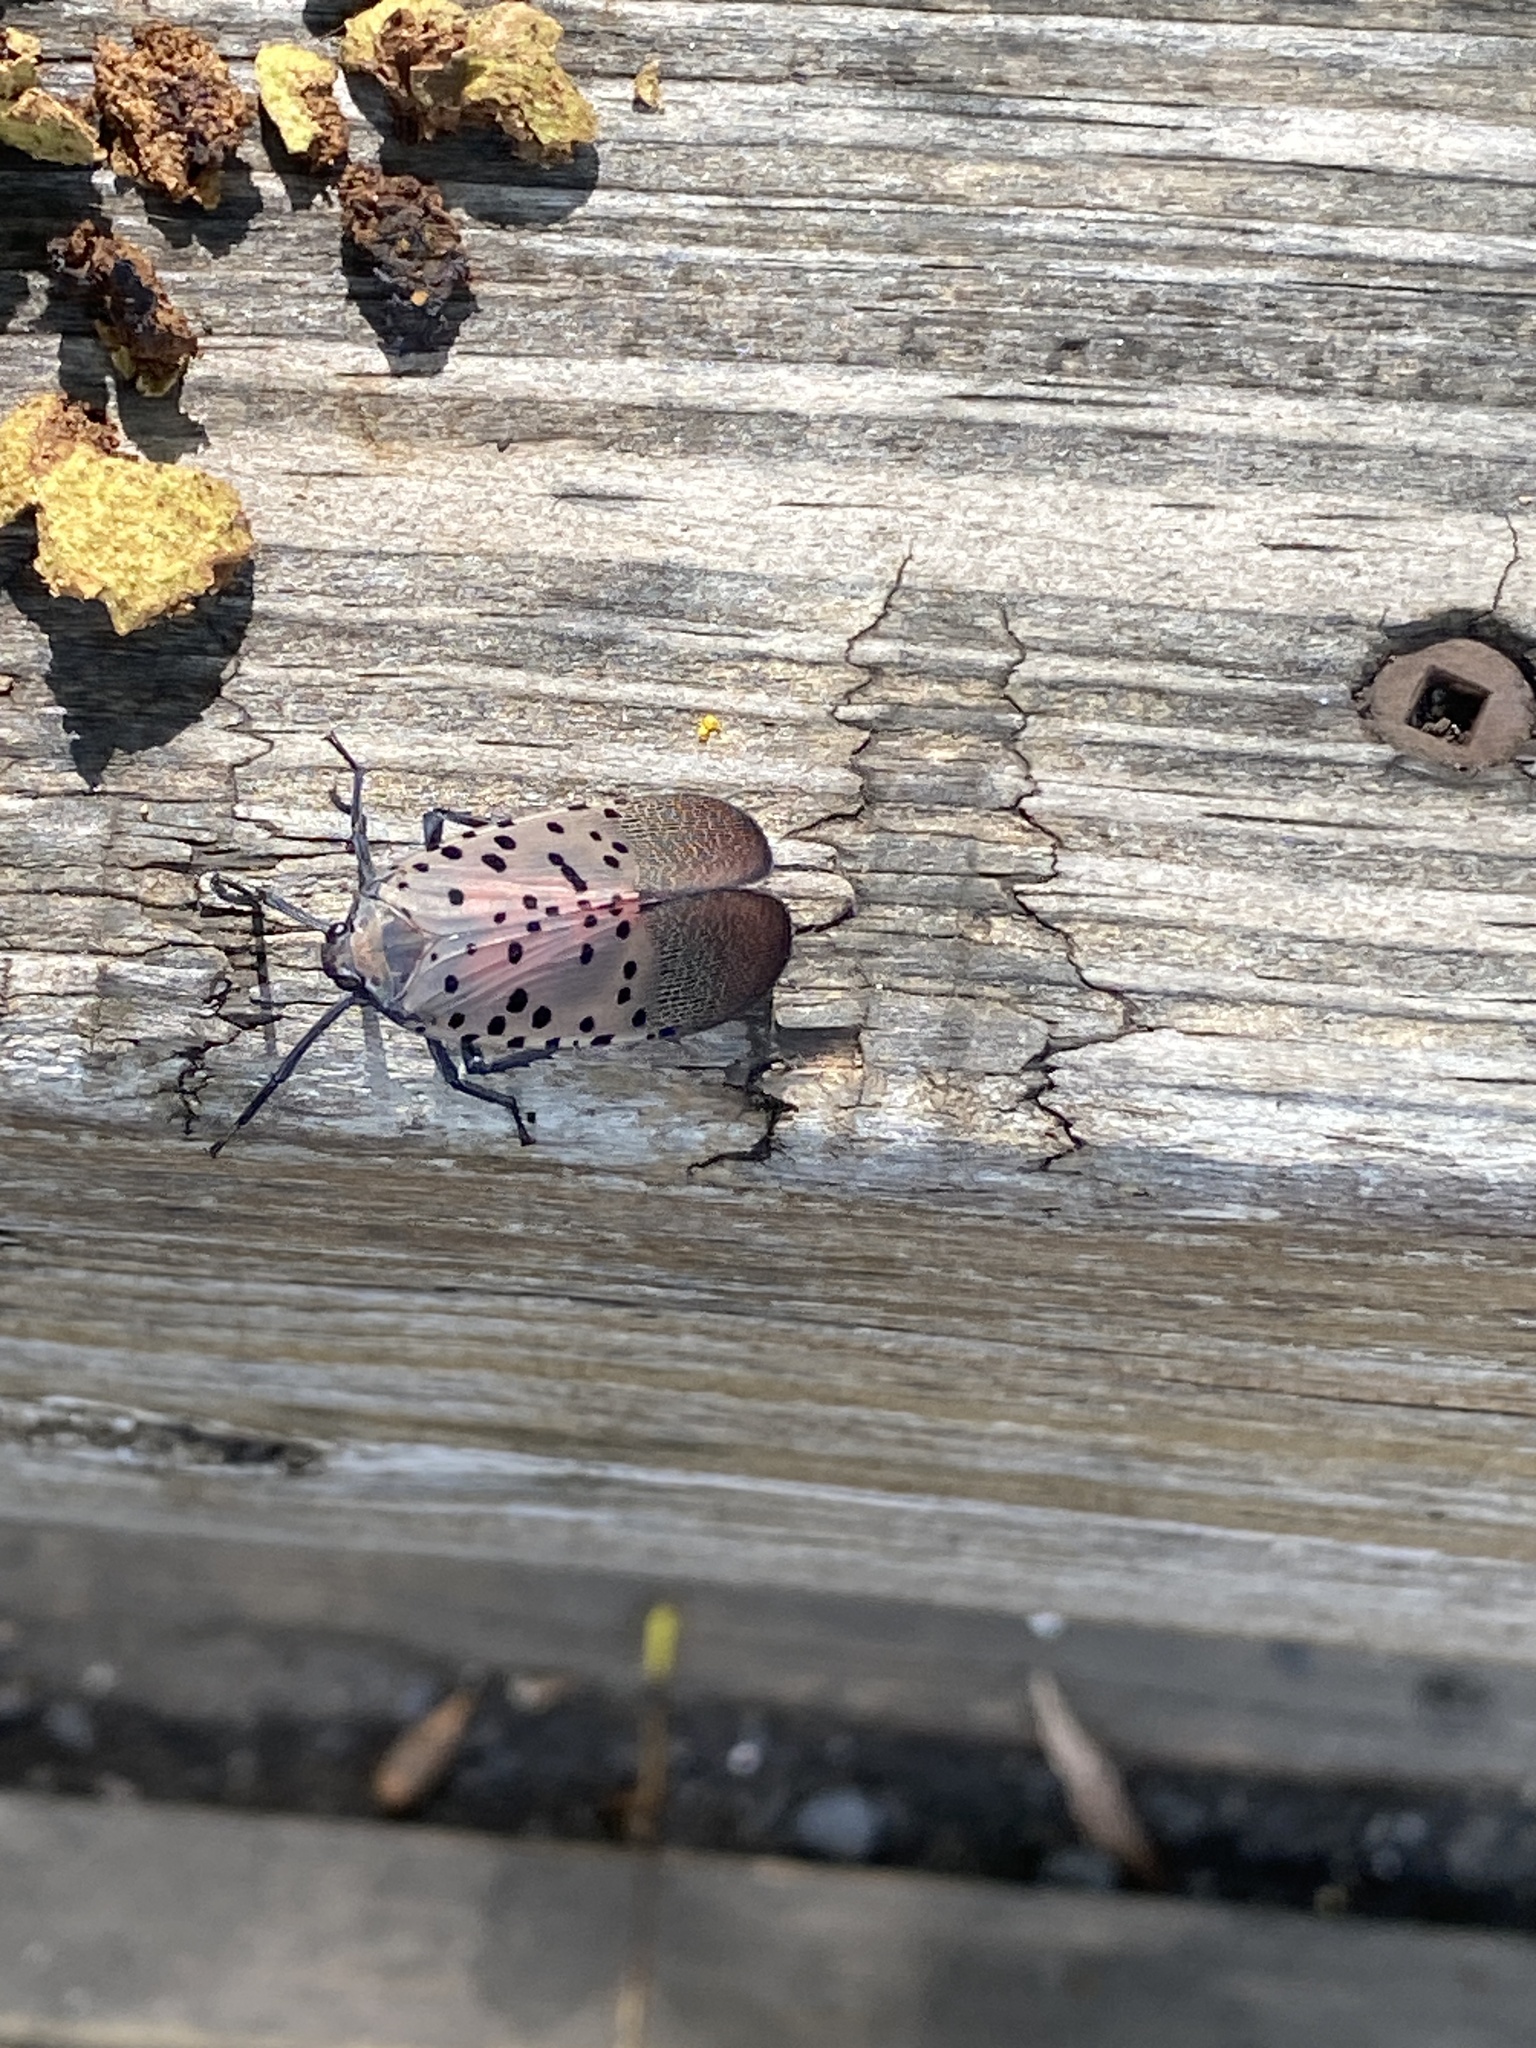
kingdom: Animalia
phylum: Arthropoda
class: Insecta
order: Hemiptera
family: Fulgoridae
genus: Lycorma
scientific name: Lycorma delicatula
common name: Spotted lanternfly
